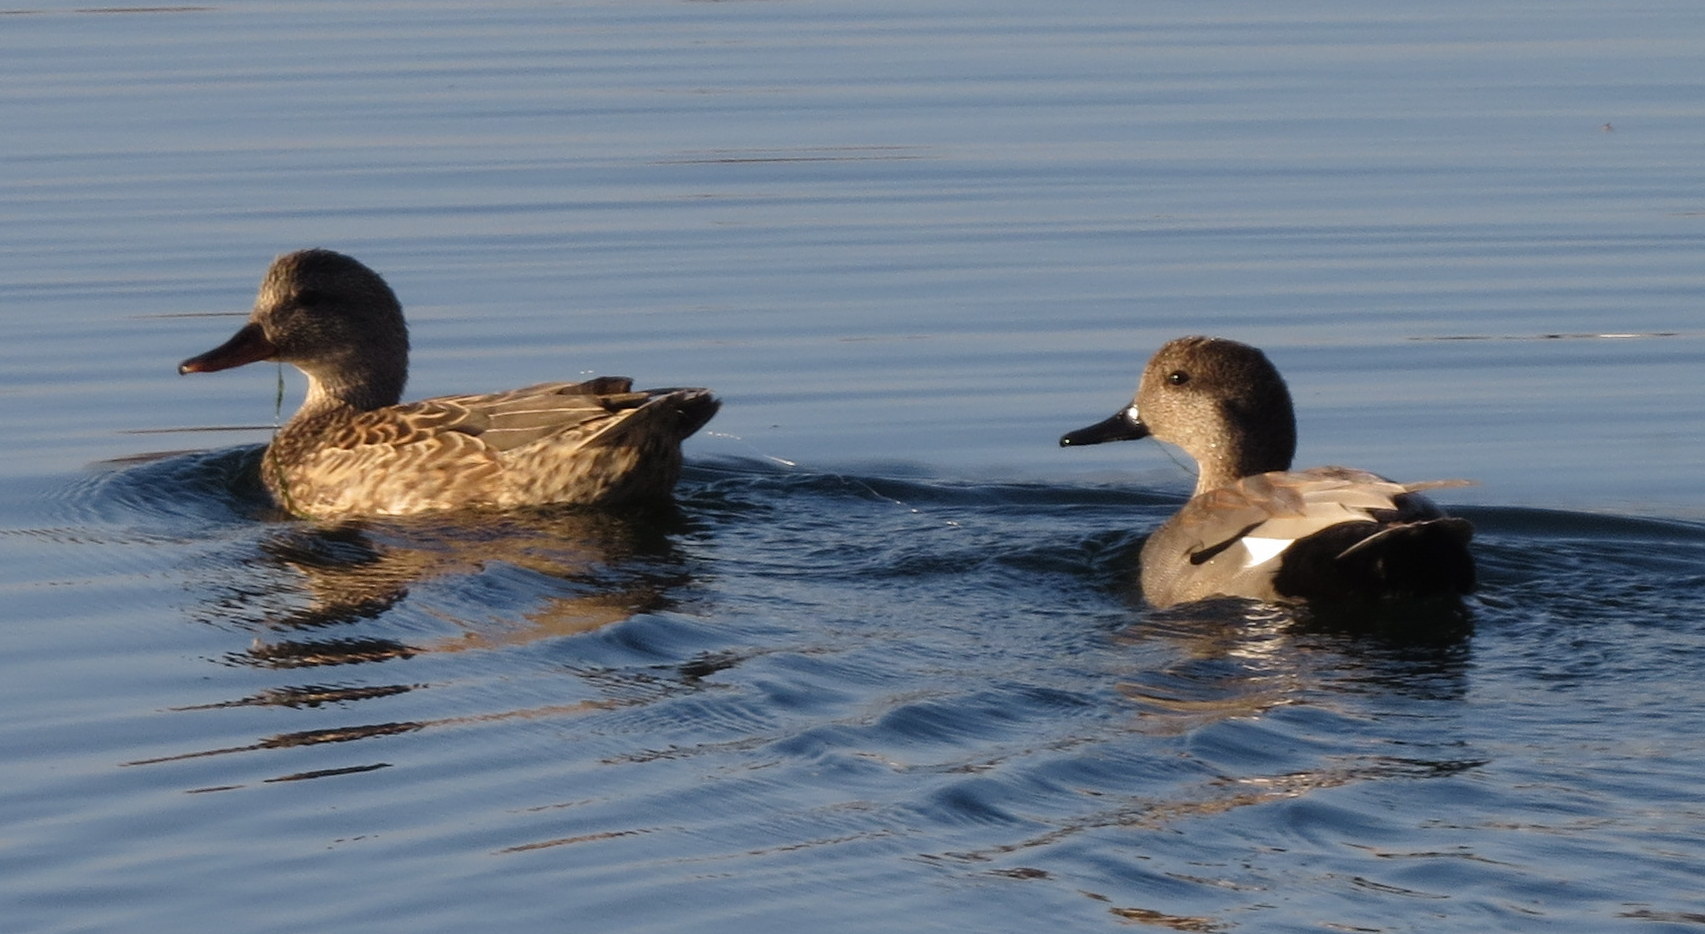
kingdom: Animalia
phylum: Chordata
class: Aves
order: Anseriformes
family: Anatidae
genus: Mareca
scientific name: Mareca strepera
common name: Gadwall
